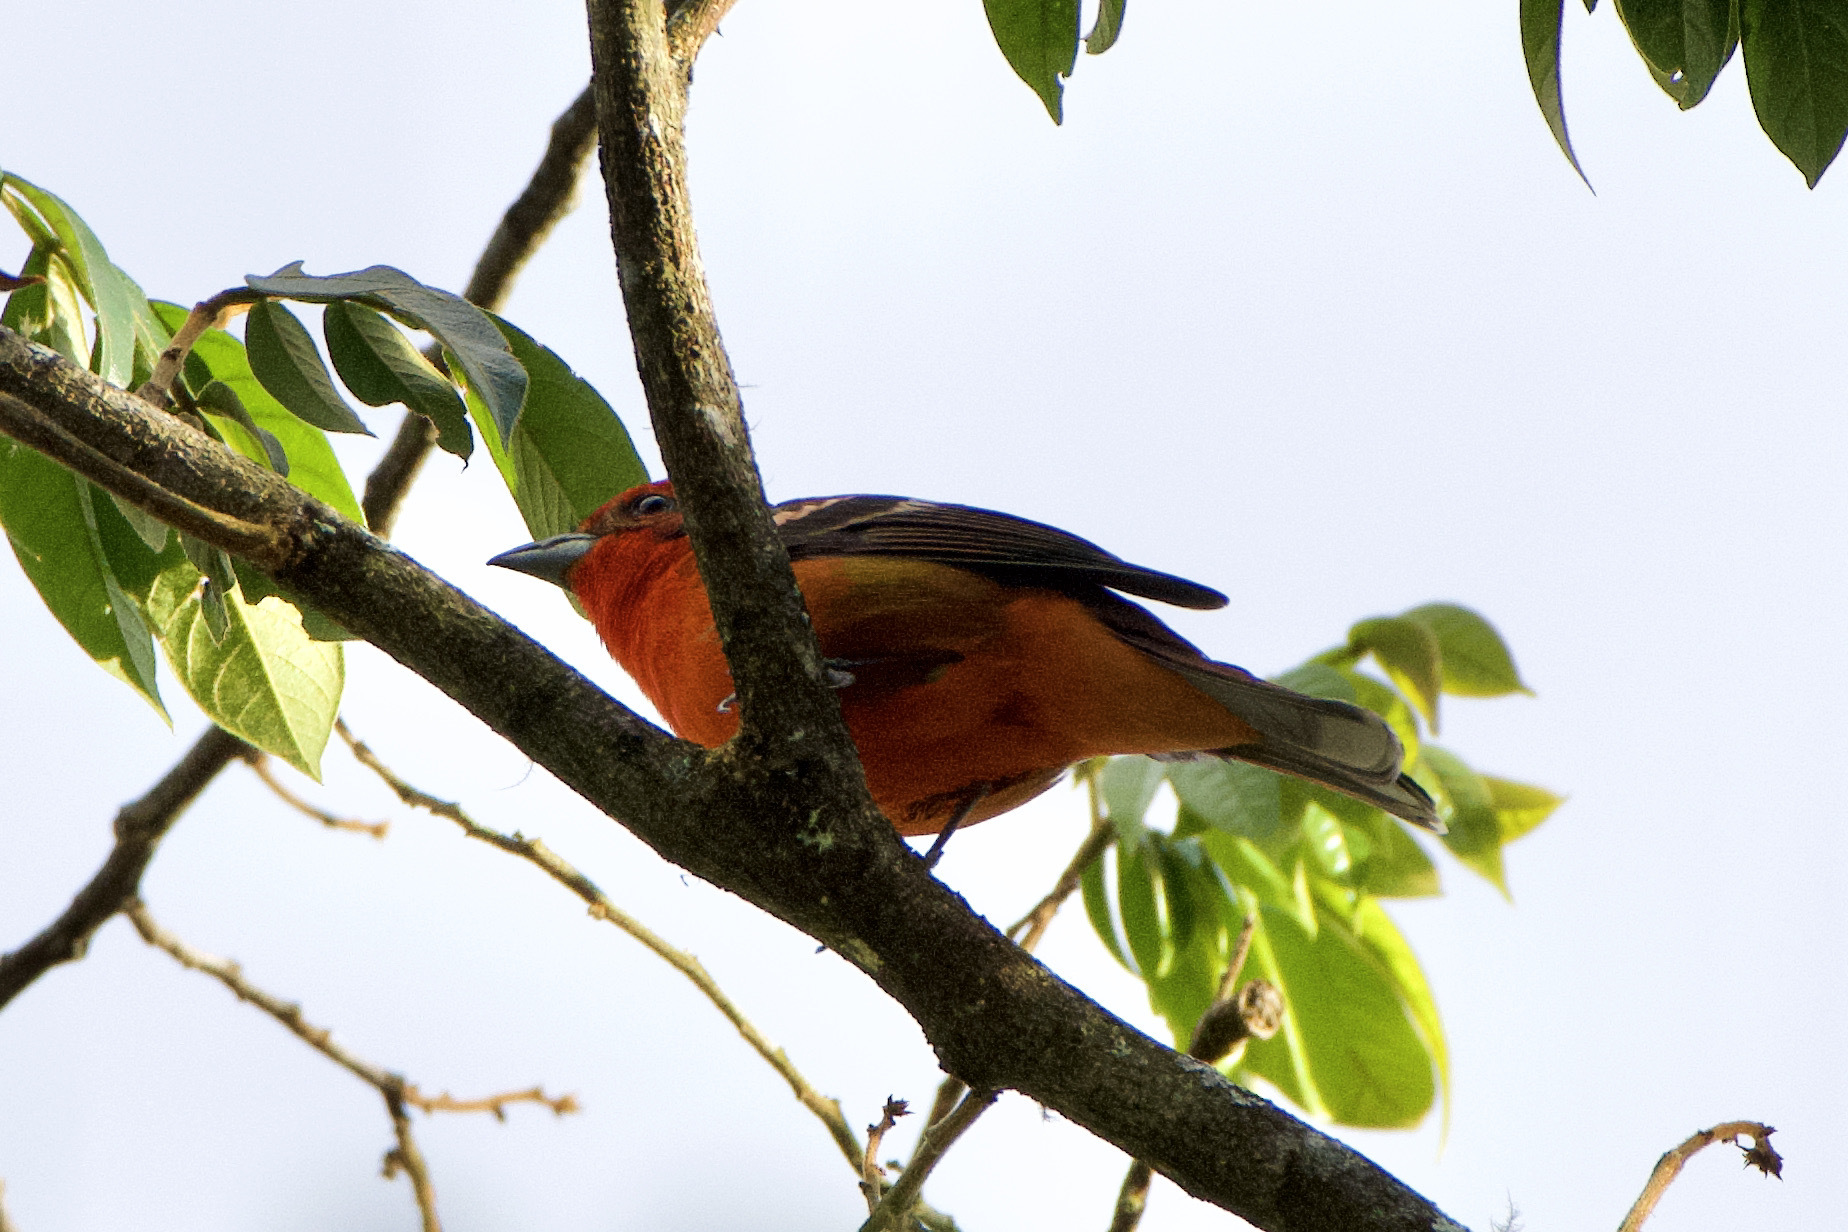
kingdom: Animalia
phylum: Chordata
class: Aves
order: Passeriformes
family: Cardinalidae
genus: Piranga
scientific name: Piranga bidentata
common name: Flame-colored tanager
